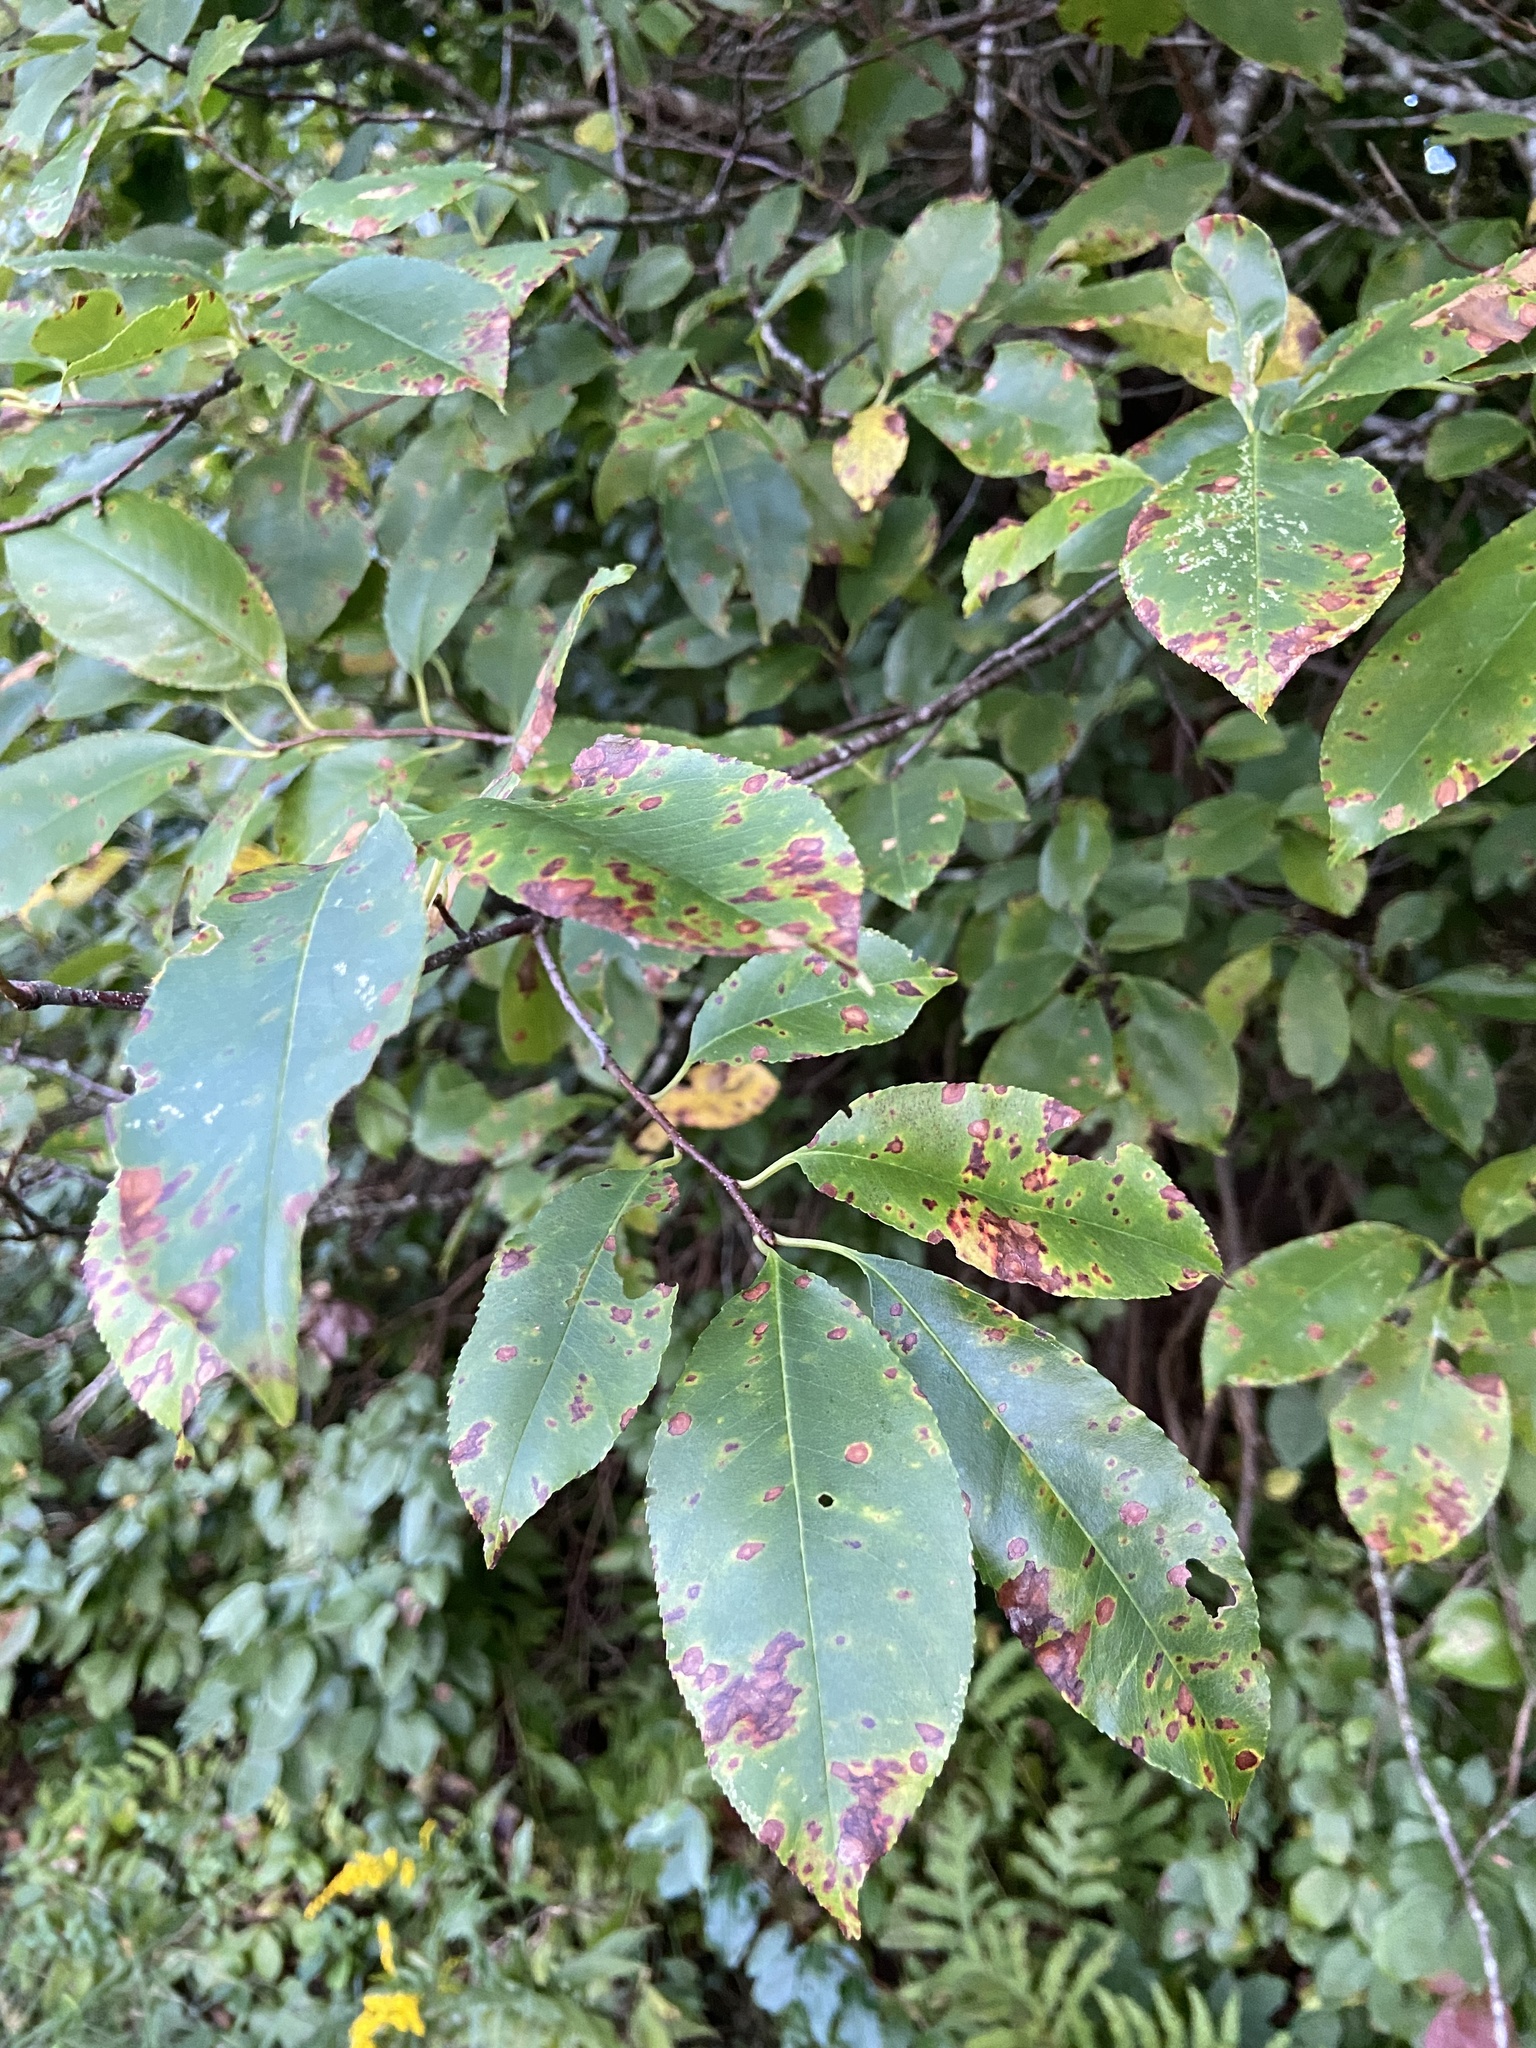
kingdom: Plantae
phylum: Tracheophyta
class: Magnoliopsida
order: Rosales
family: Rosaceae
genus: Prunus
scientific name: Prunus serotina
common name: Black cherry
